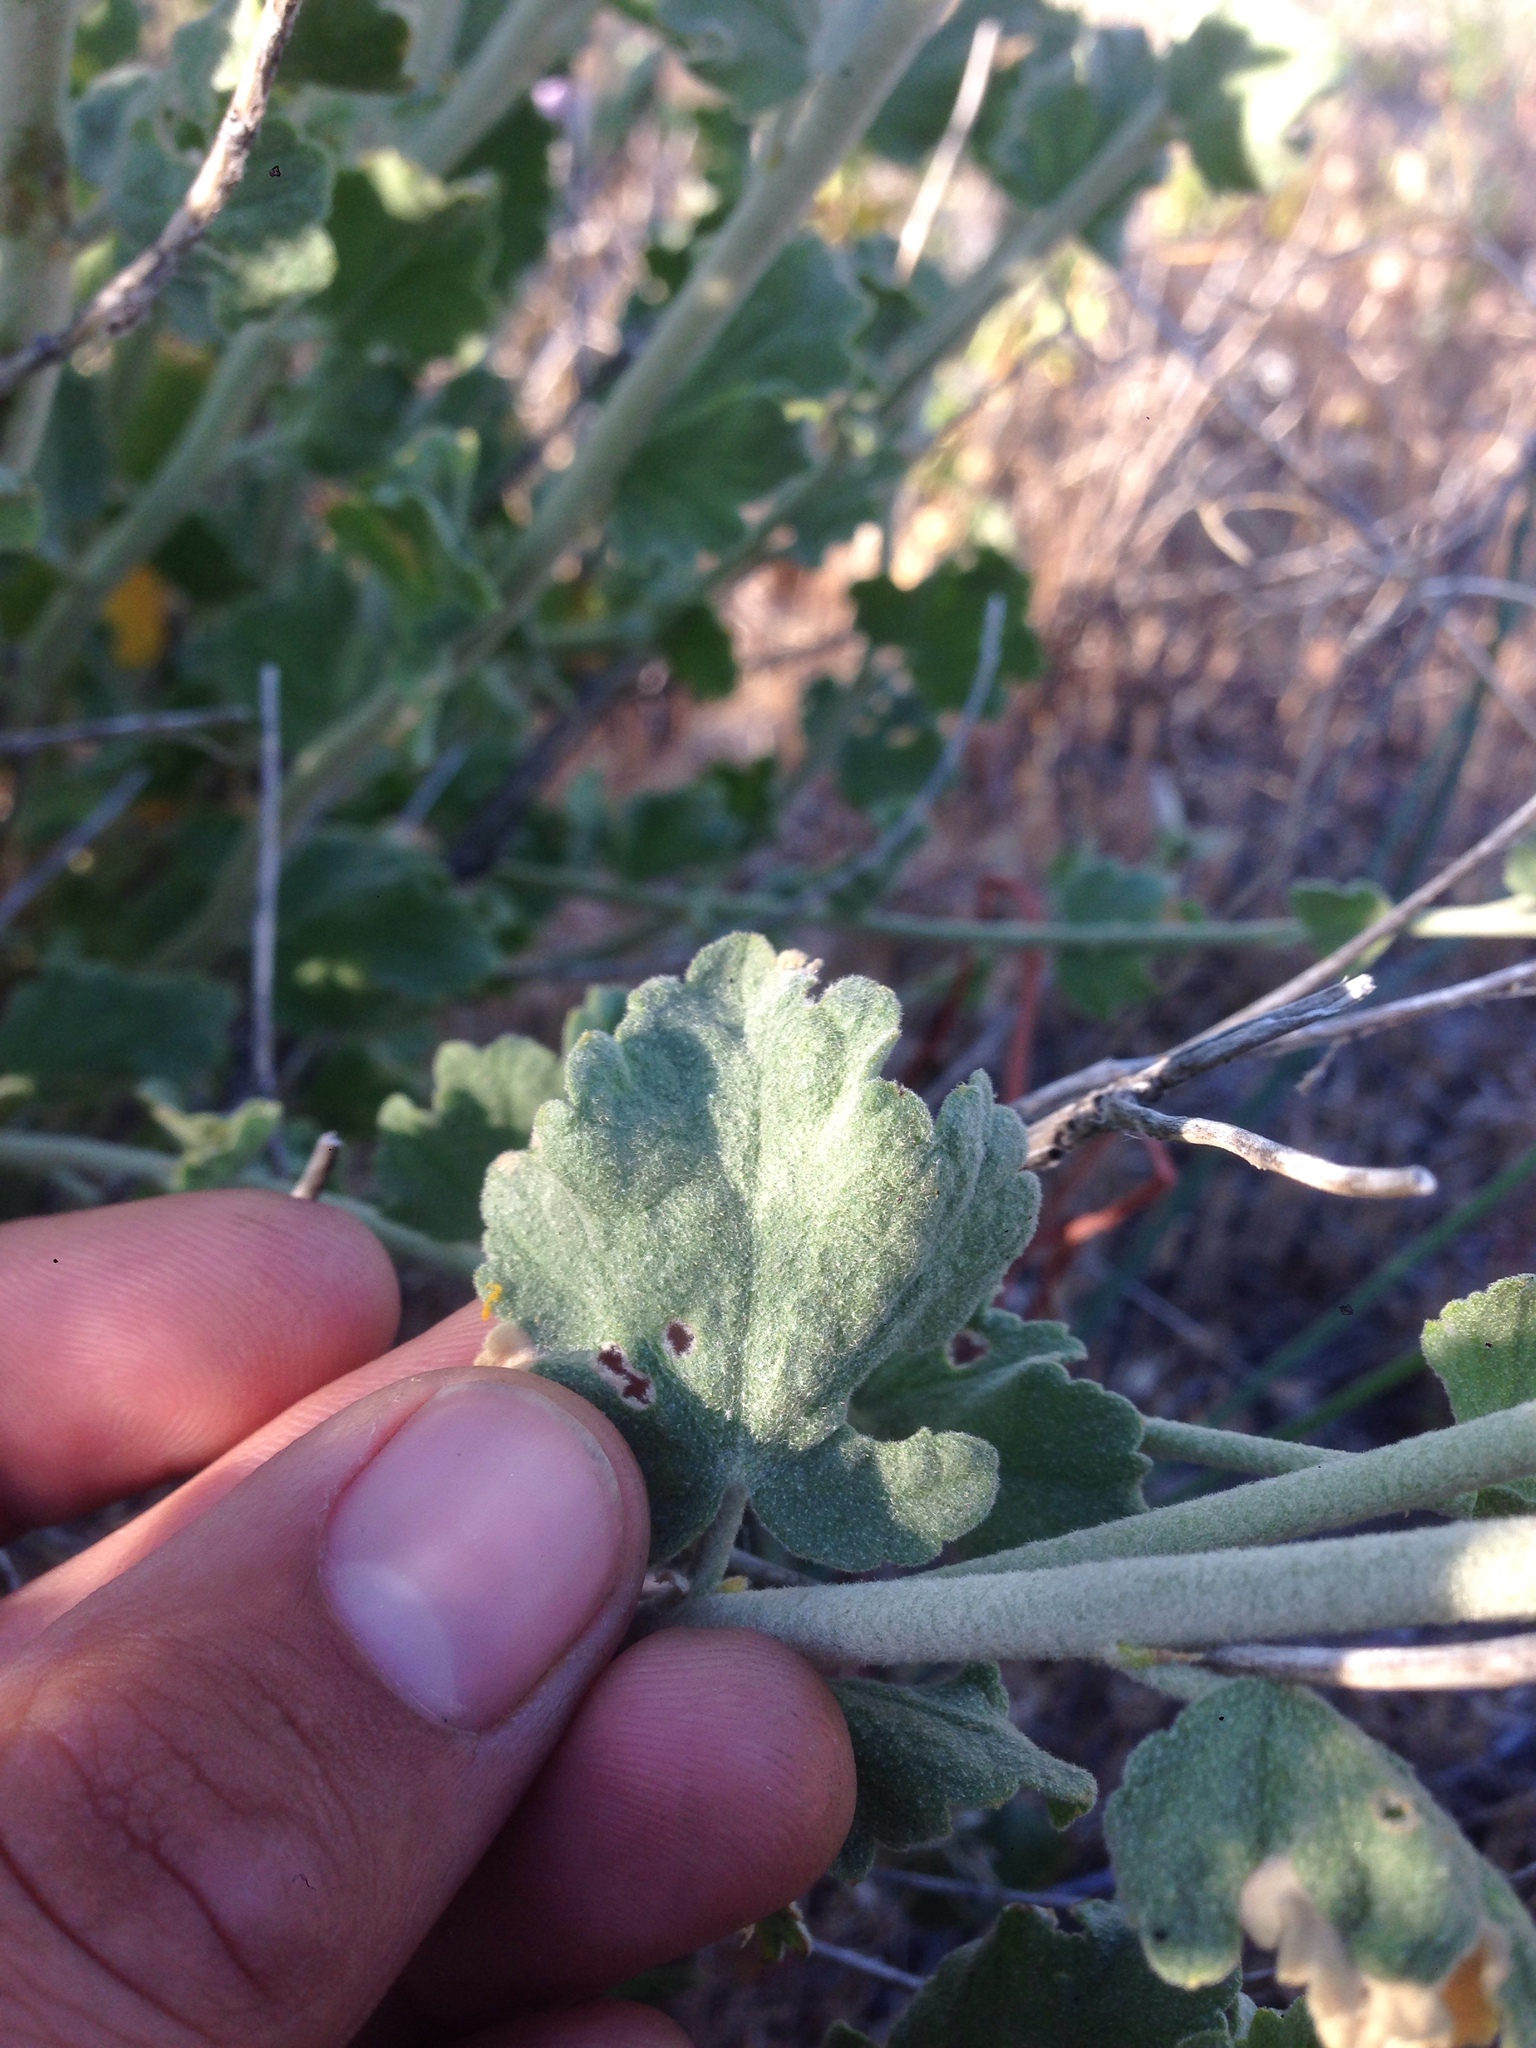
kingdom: Plantae
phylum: Tracheophyta
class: Magnoliopsida
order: Malvales
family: Malvaceae
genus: Malacothamnus
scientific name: Malacothamnus fremontii
